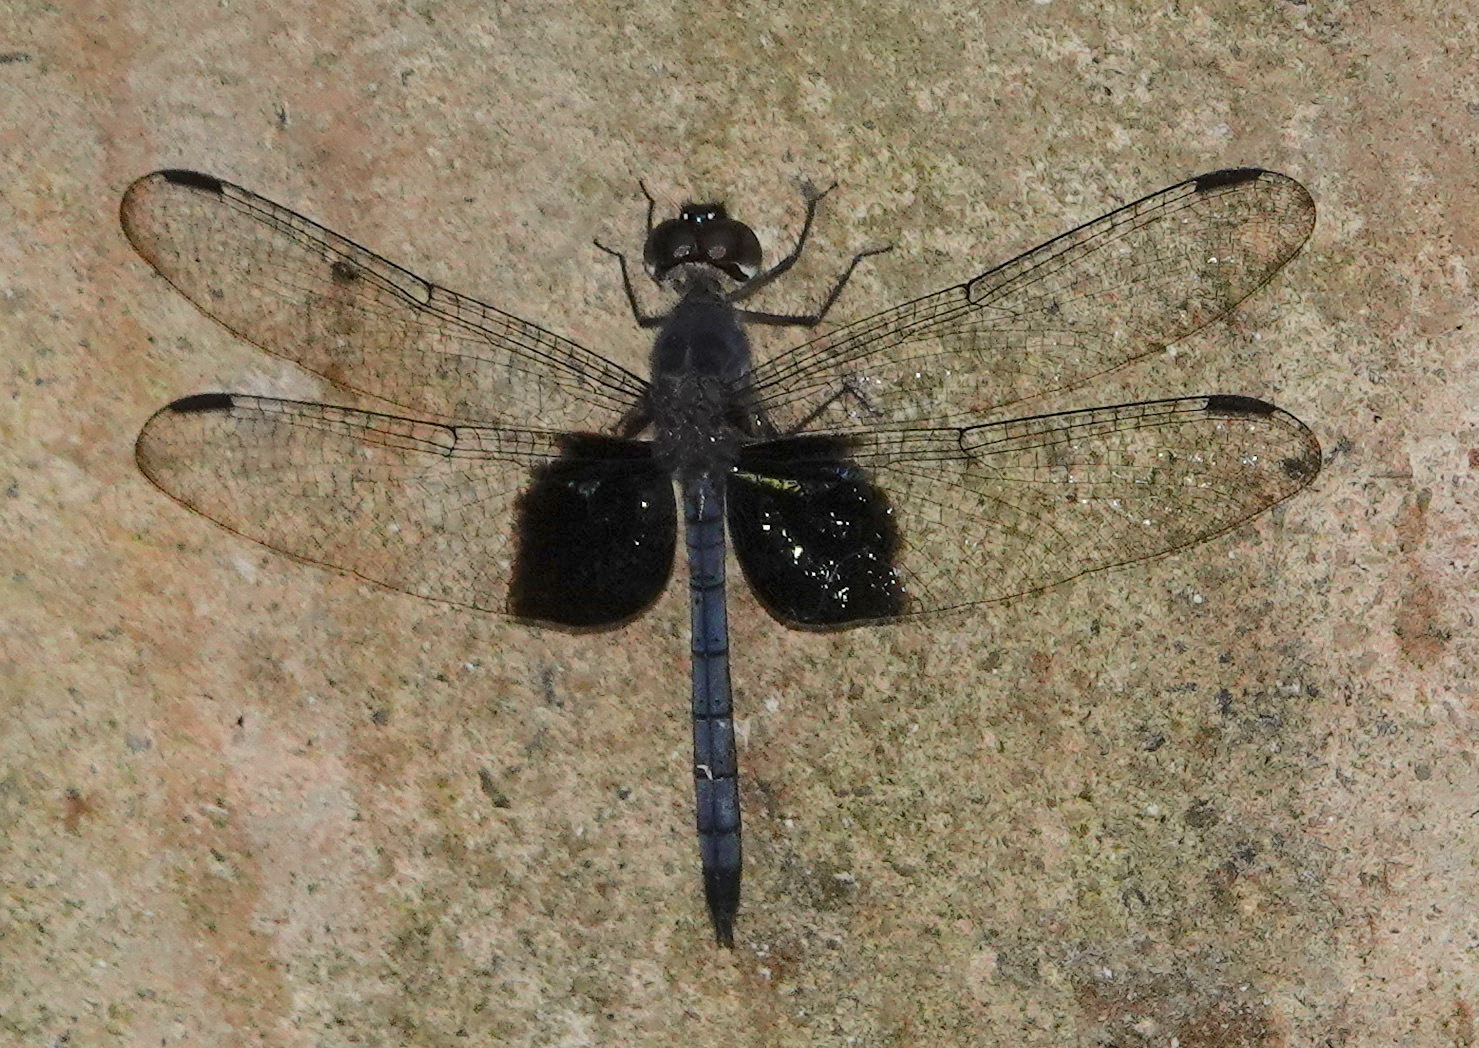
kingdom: Animalia
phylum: Arthropoda
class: Insecta
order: Odonata
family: Libellulidae
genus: Tyriobapta
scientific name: Tyriobapta torrida
